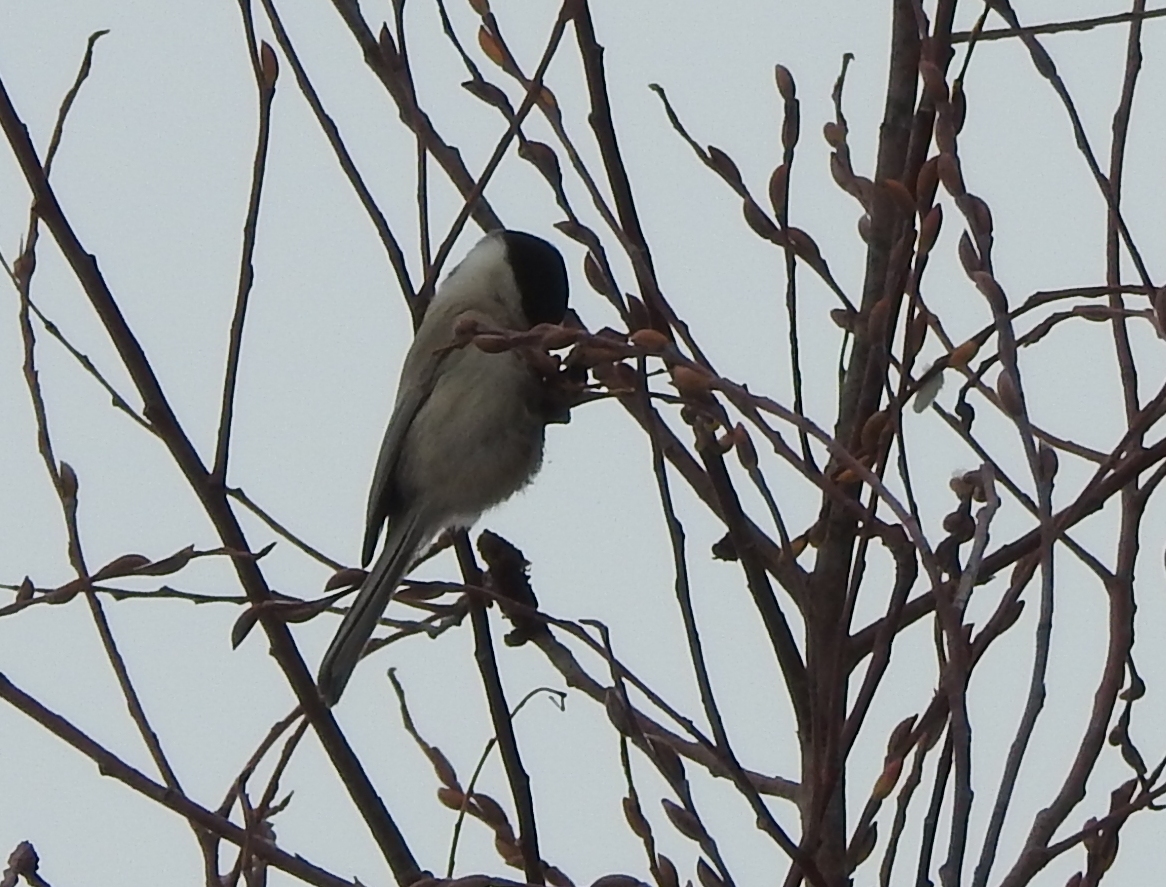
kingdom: Animalia
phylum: Chordata
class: Aves
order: Passeriformes
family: Paridae
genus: Poecile
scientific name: Poecile montanus
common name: Willow tit
